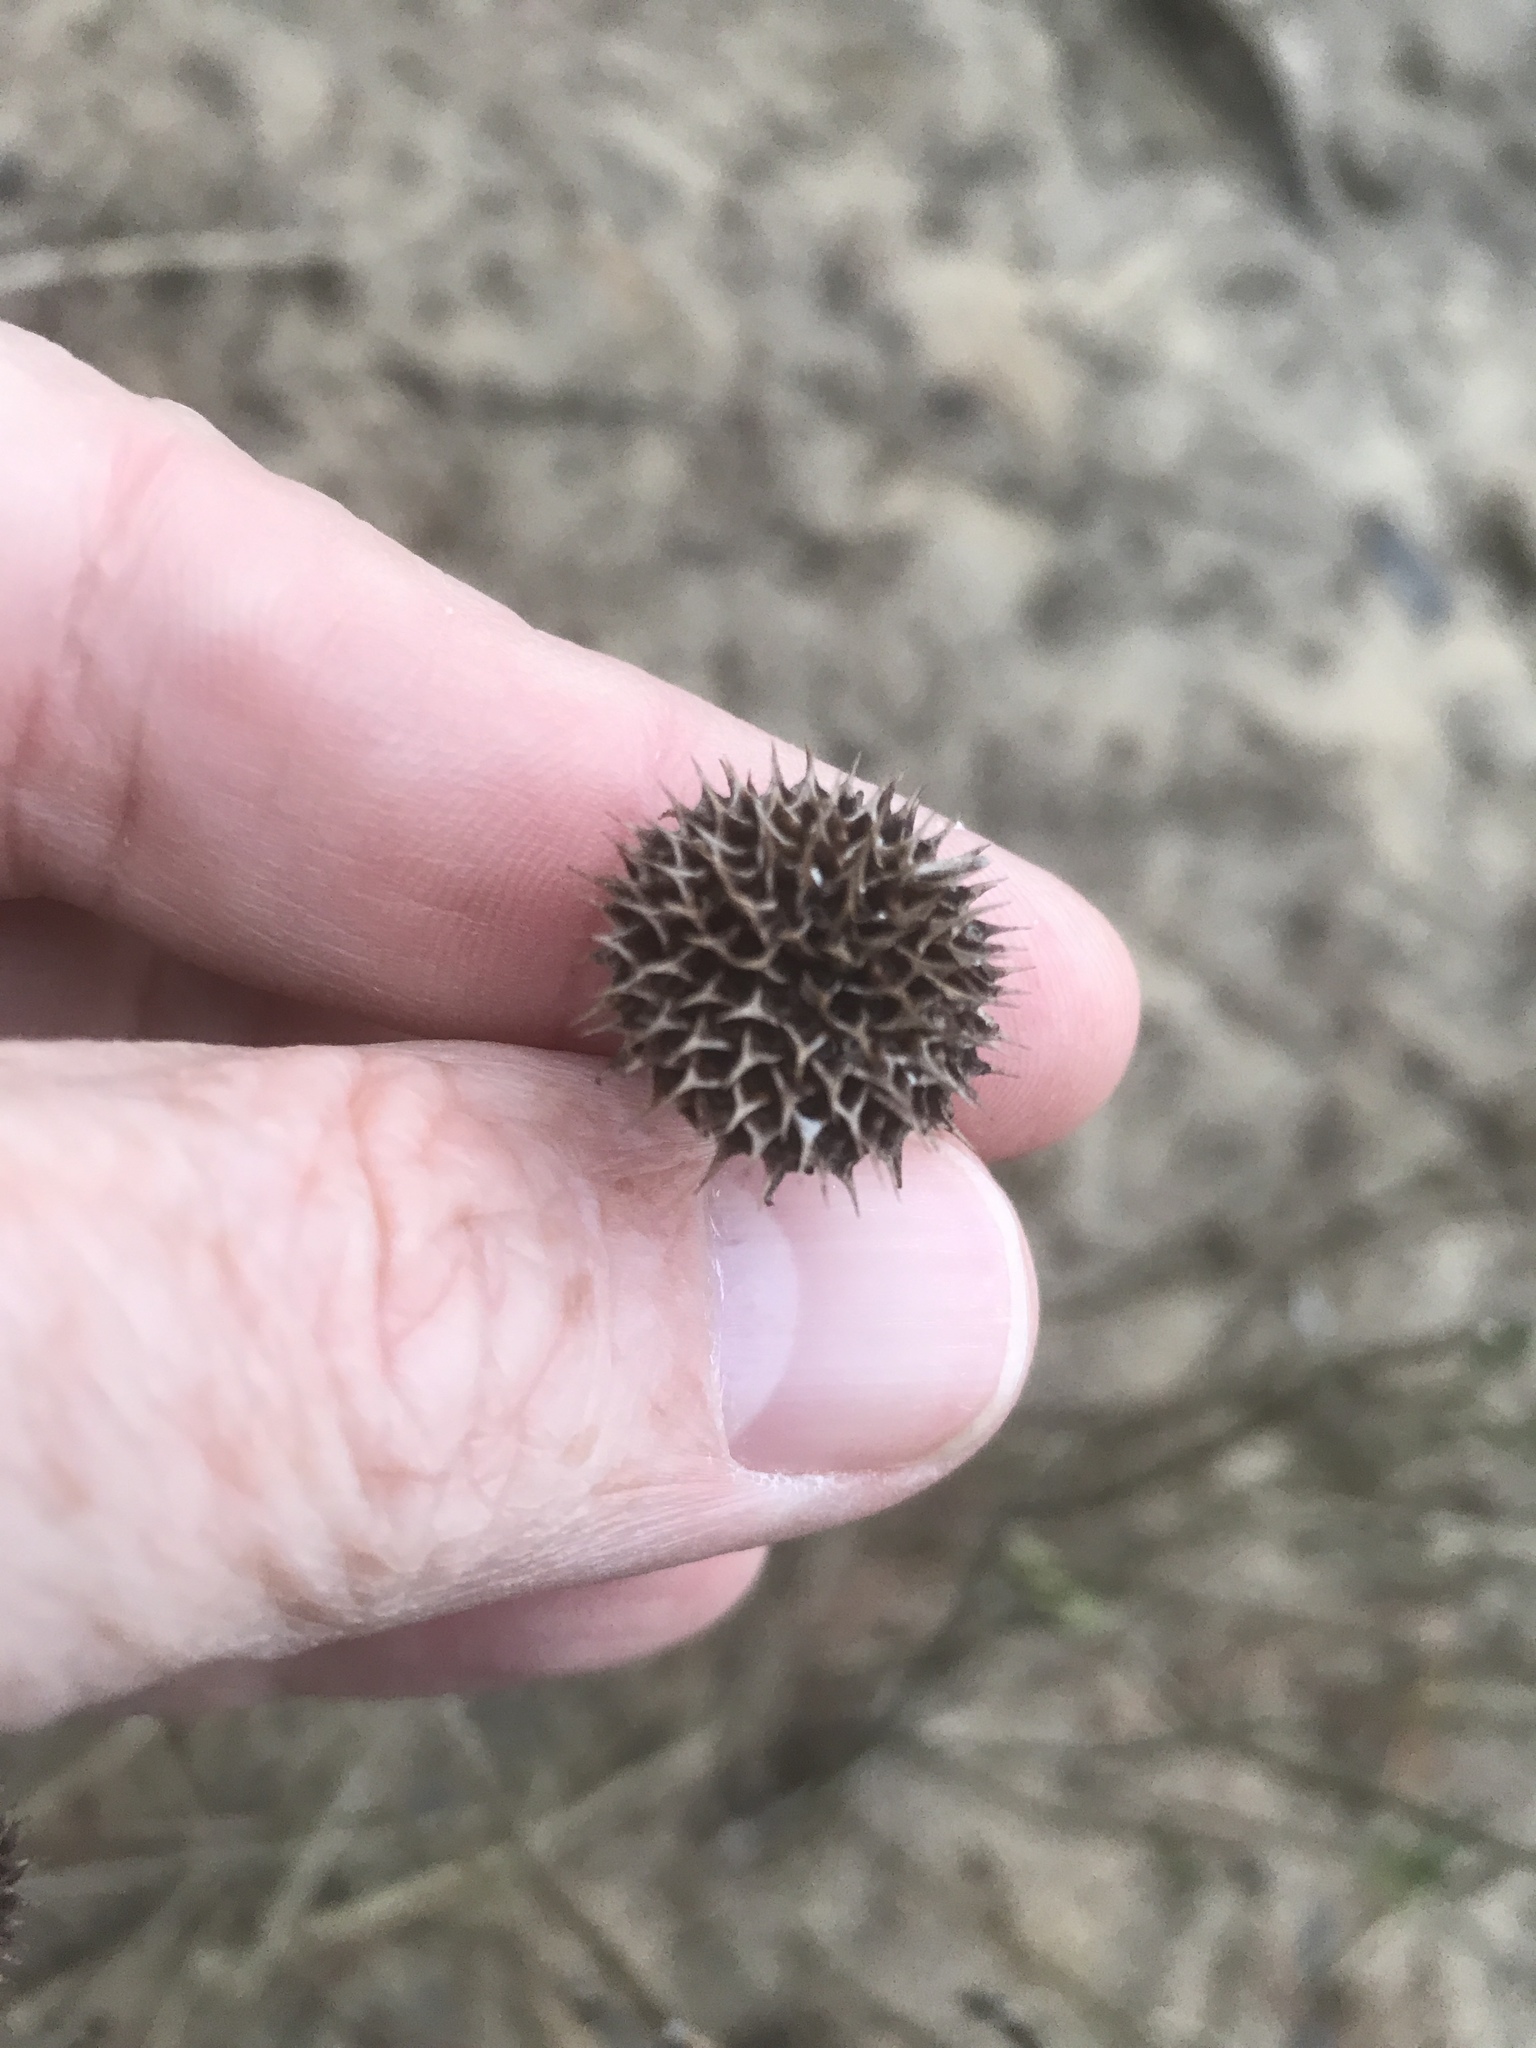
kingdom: Plantae
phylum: Tracheophyta
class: Magnoliopsida
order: Asterales
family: Asteraceae
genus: Borrichia
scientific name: Borrichia frutescens
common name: Sea oxeye
